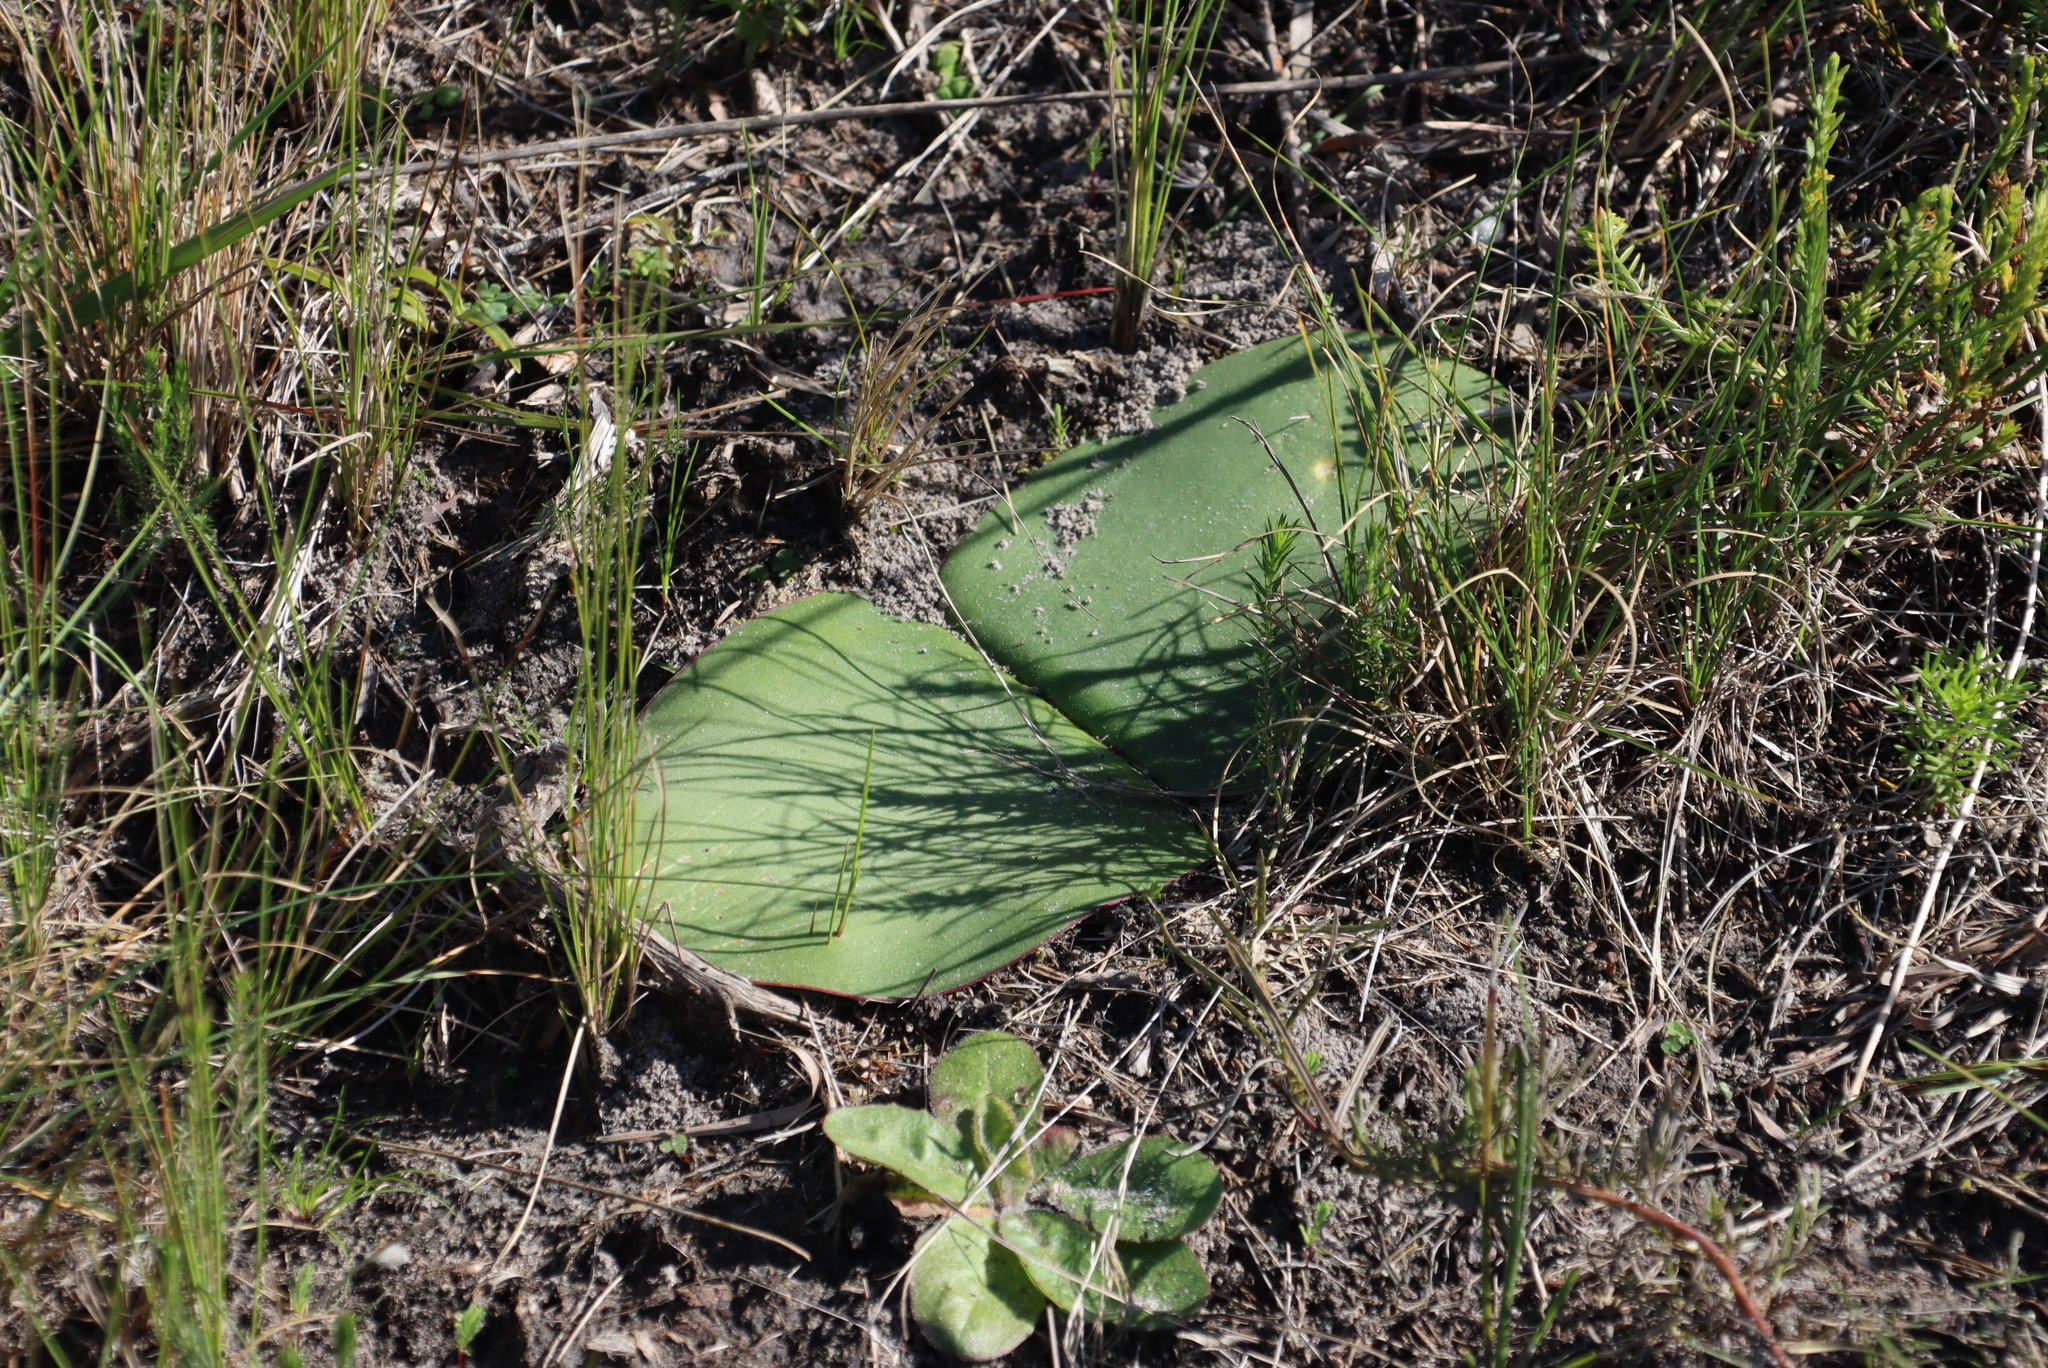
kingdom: Plantae
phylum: Tracheophyta
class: Liliopsida
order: Asparagales
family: Amaryllidaceae
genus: Haemanthus
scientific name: Haemanthus sanguineus
